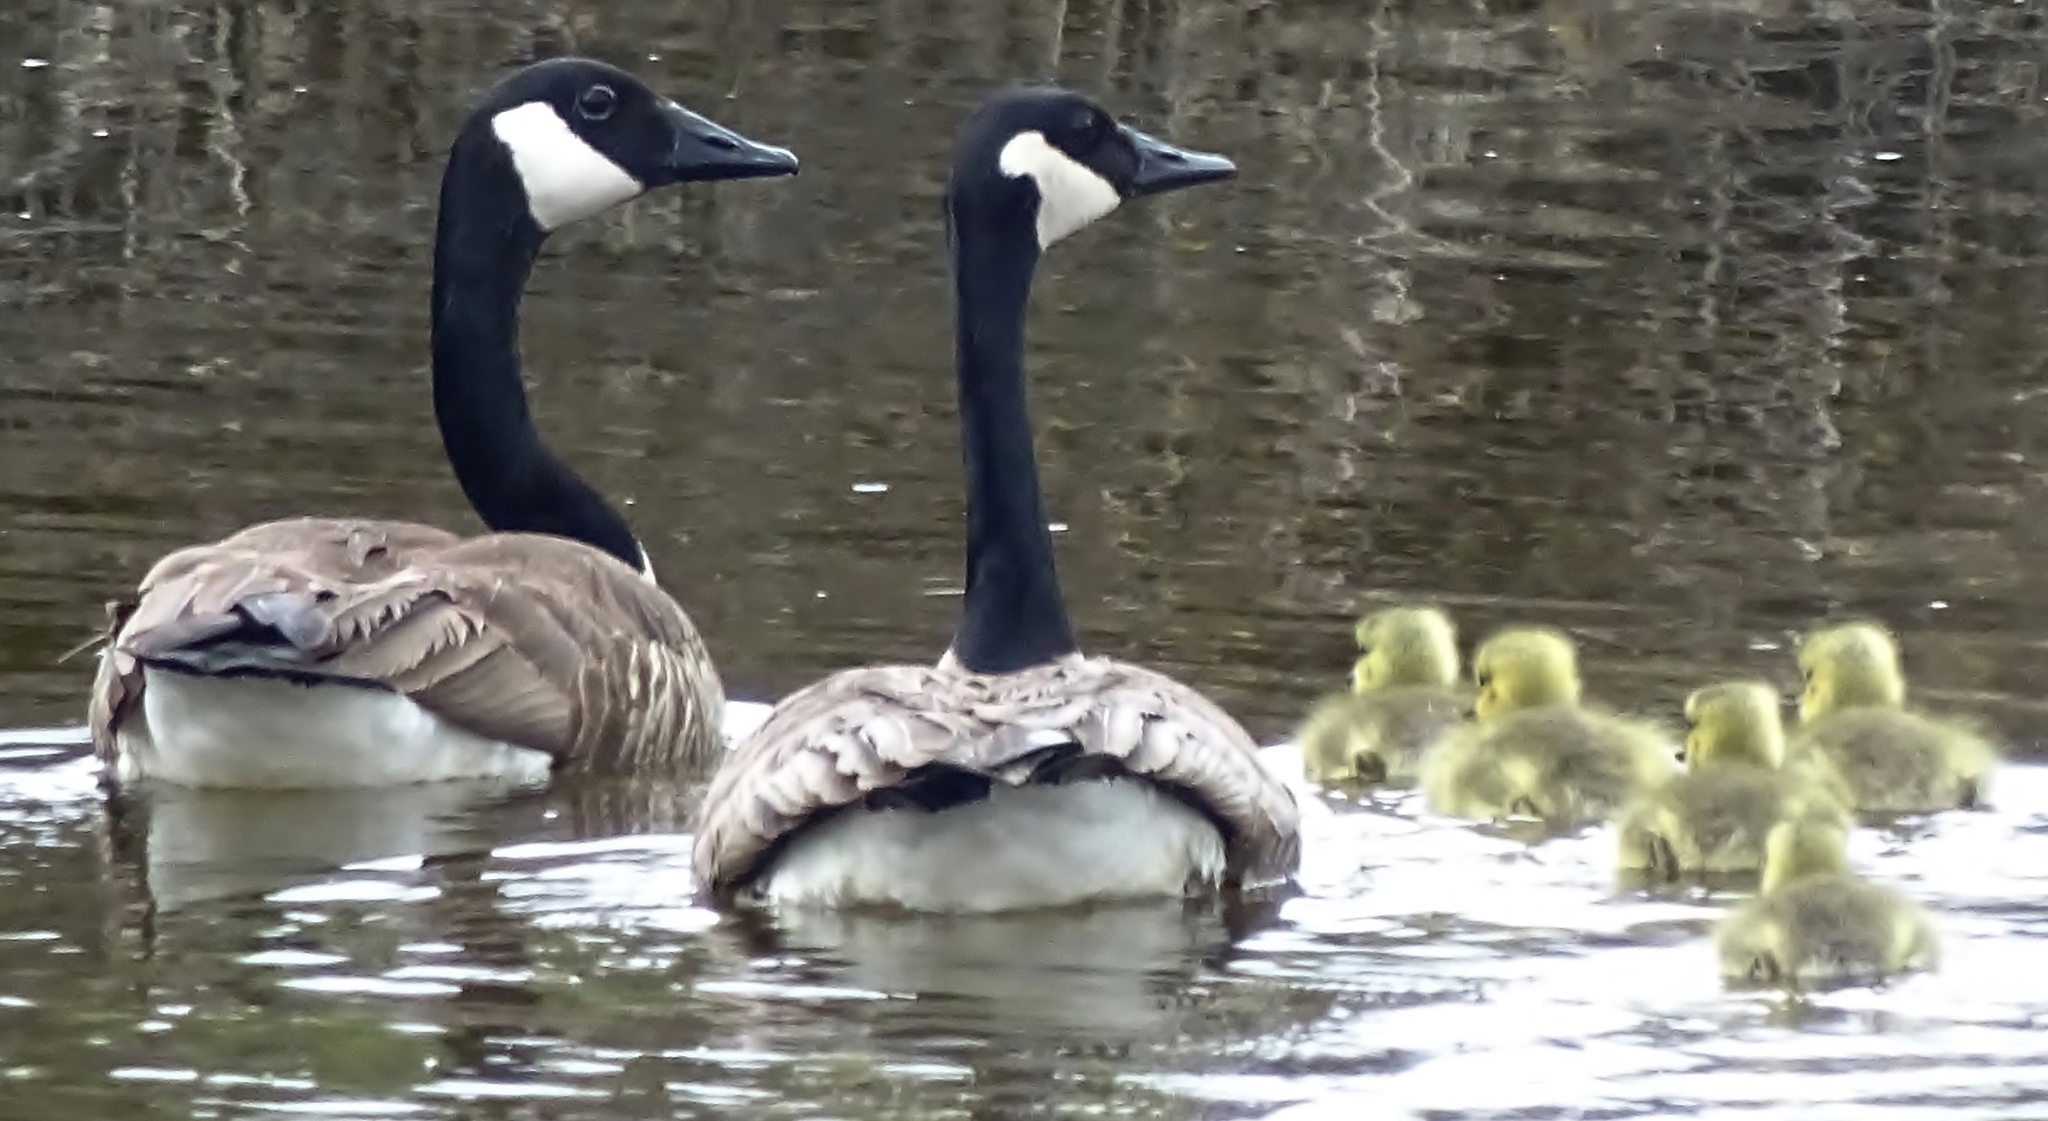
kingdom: Animalia
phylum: Chordata
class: Aves
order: Anseriformes
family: Anatidae
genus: Branta
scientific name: Branta canadensis
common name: Canada goose
